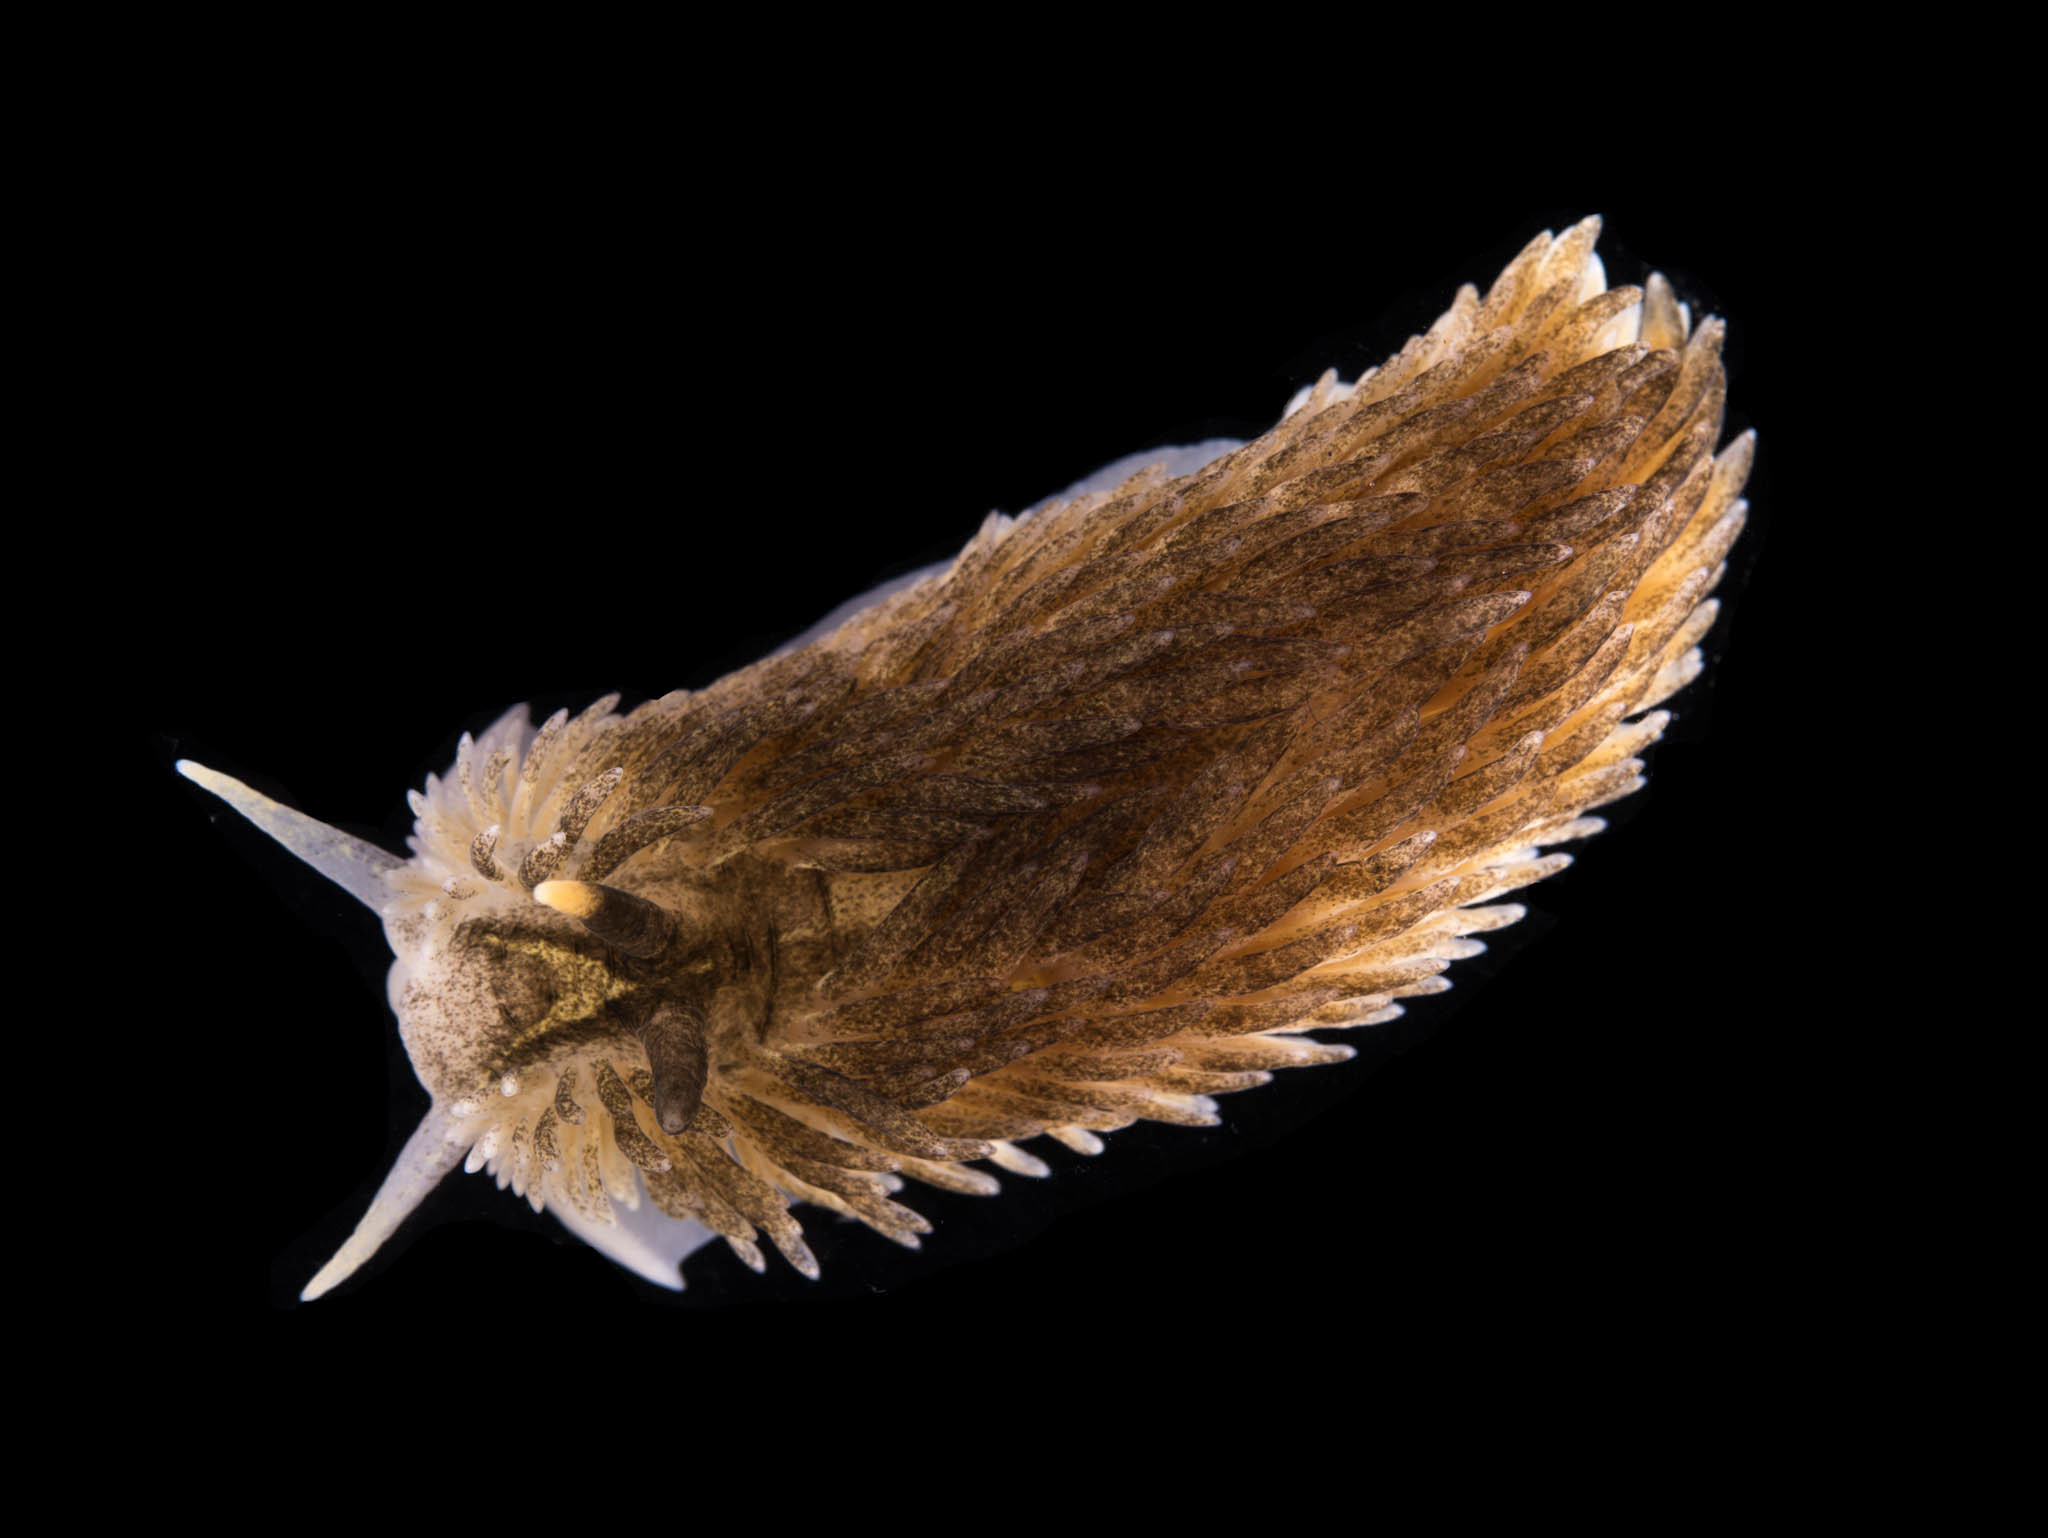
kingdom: Animalia
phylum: Mollusca
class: Gastropoda
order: Nudibranchia
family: Aeolidiidae
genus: Aeolidia
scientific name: Aeolidia filomenae
